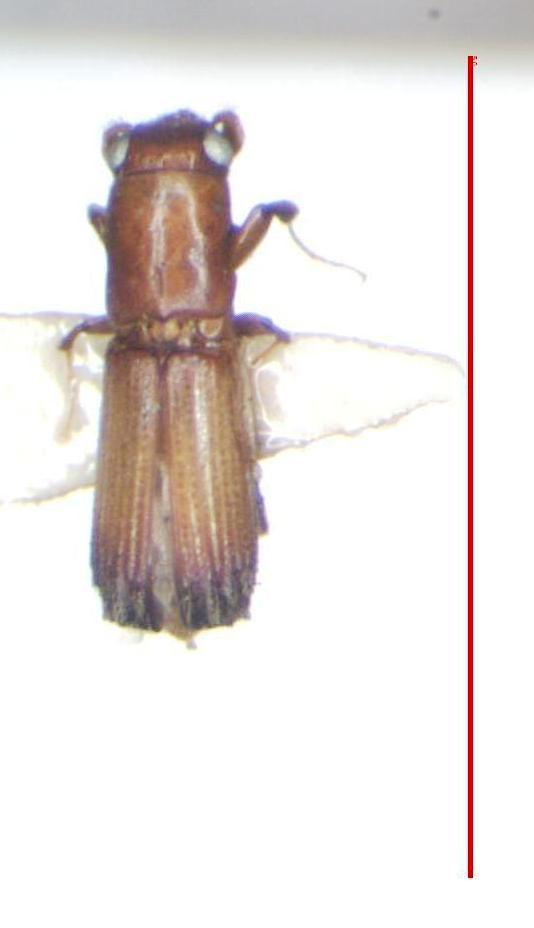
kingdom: Animalia
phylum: Arthropoda
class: Insecta
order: Coleoptera
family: Curculionidae
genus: Costaroplatus
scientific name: Costaroplatus pulchellus
